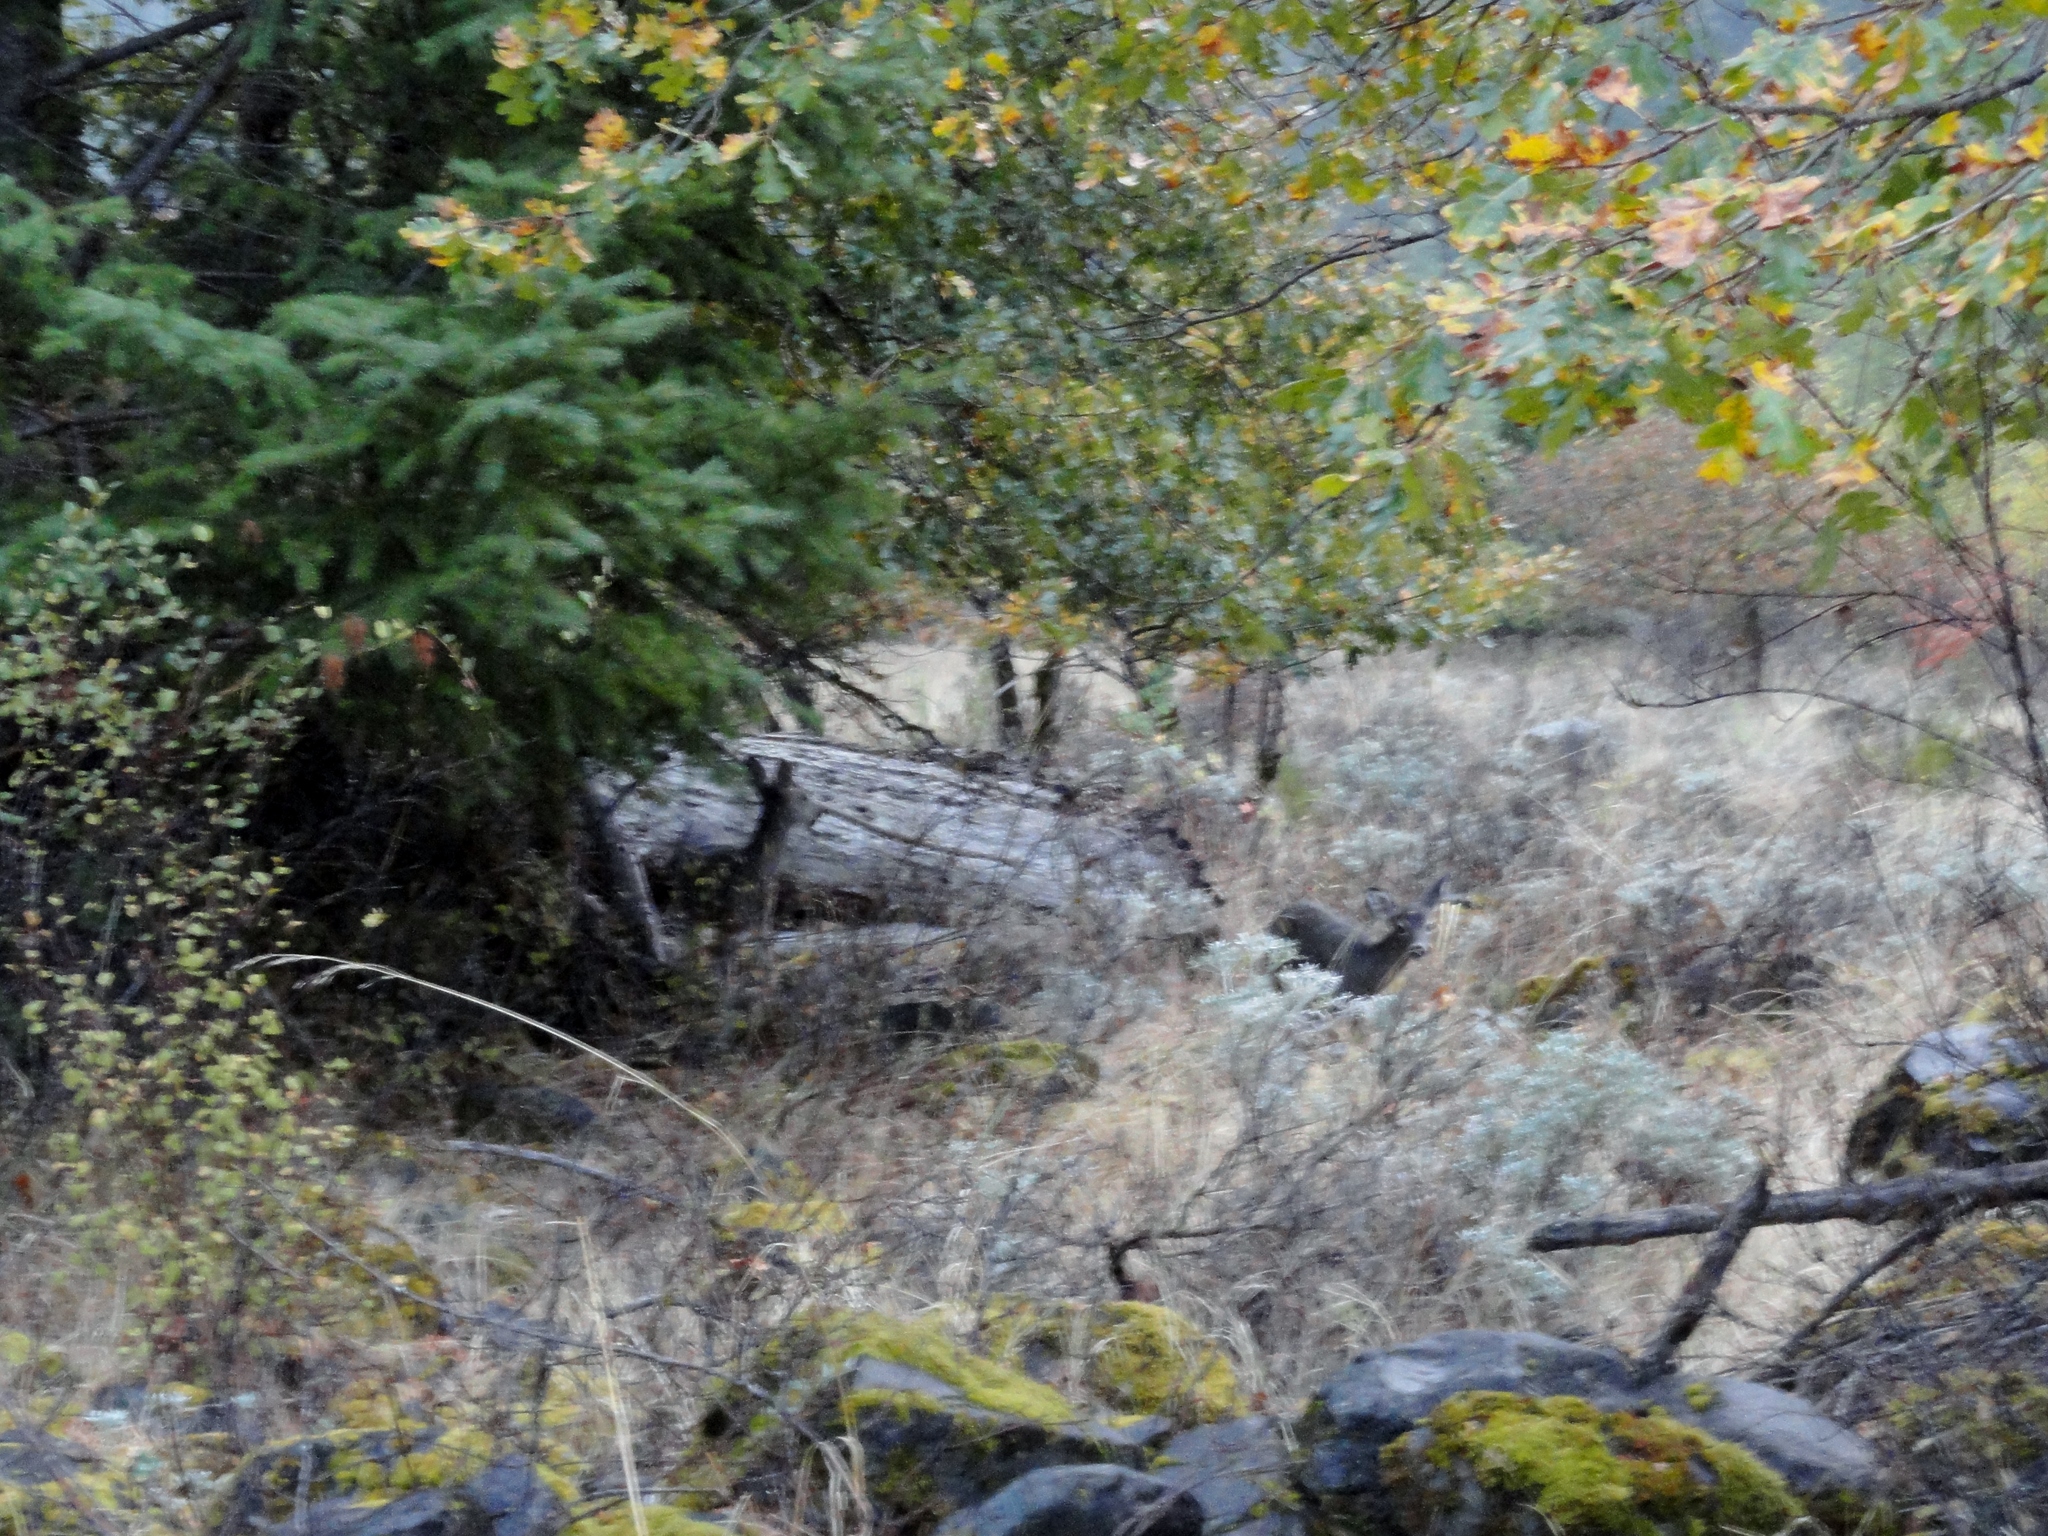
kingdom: Animalia
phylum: Chordata
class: Mammalia
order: Artiodactyla
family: Cervidae
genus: Odocoileus
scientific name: Odocoileus hemionus
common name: Mule deer
